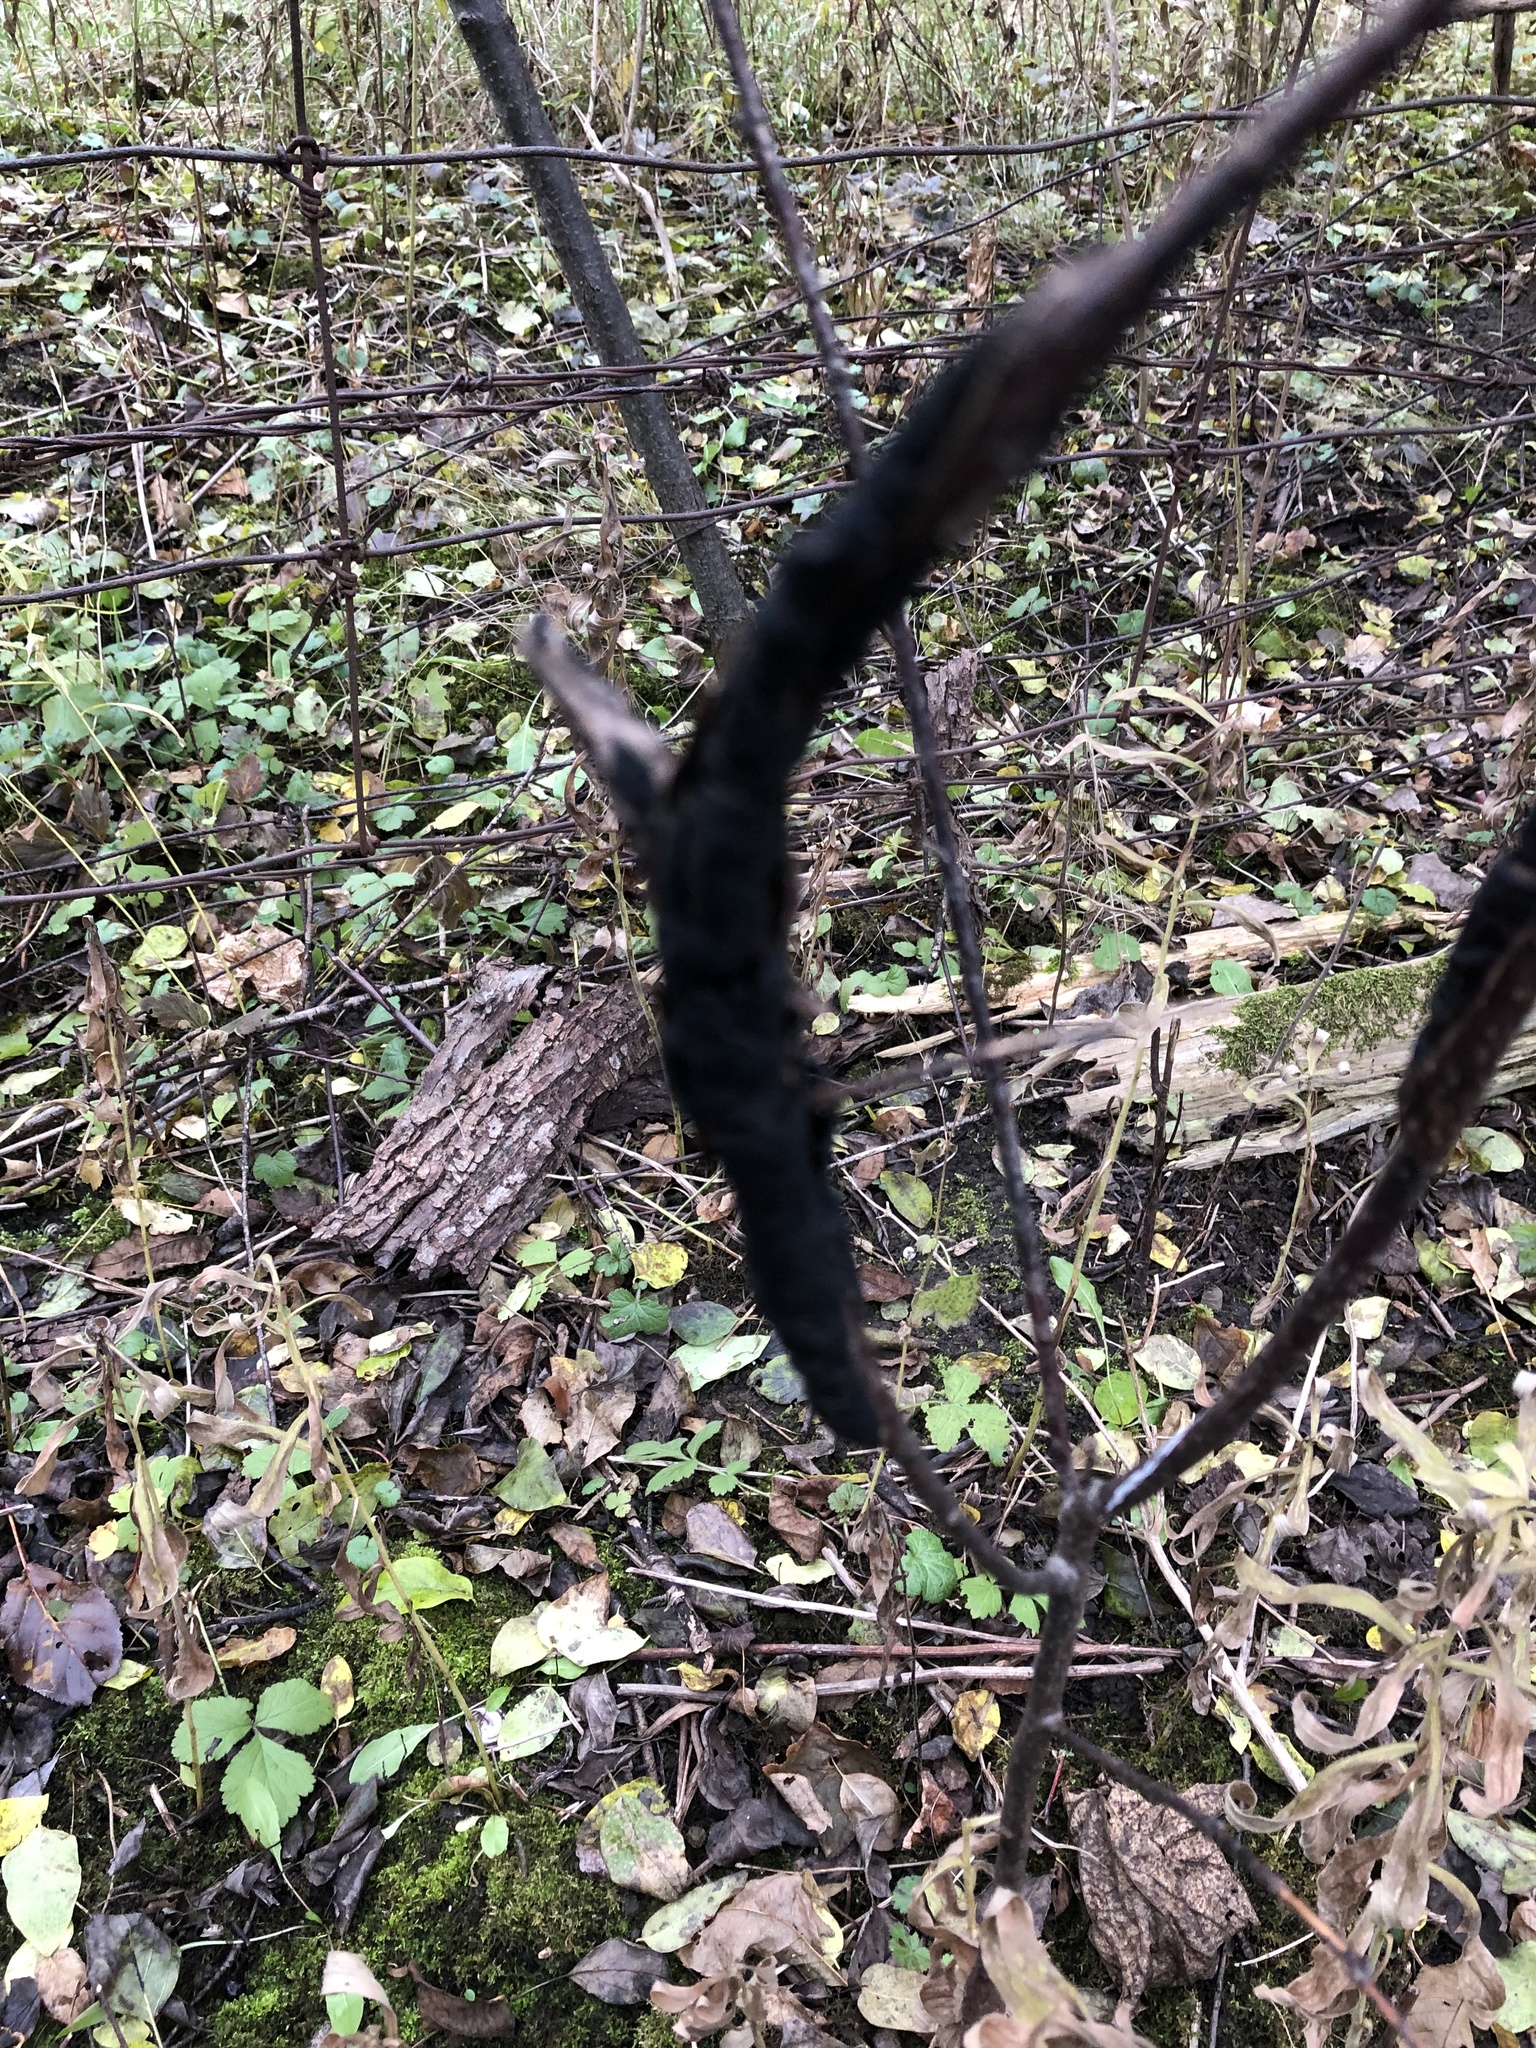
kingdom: Fungi
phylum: Ascomycota
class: Dothideomycetes
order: Venturiales
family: Venturiaceae
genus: Apiosporina
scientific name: Apiosporina morbosa
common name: Black knot
